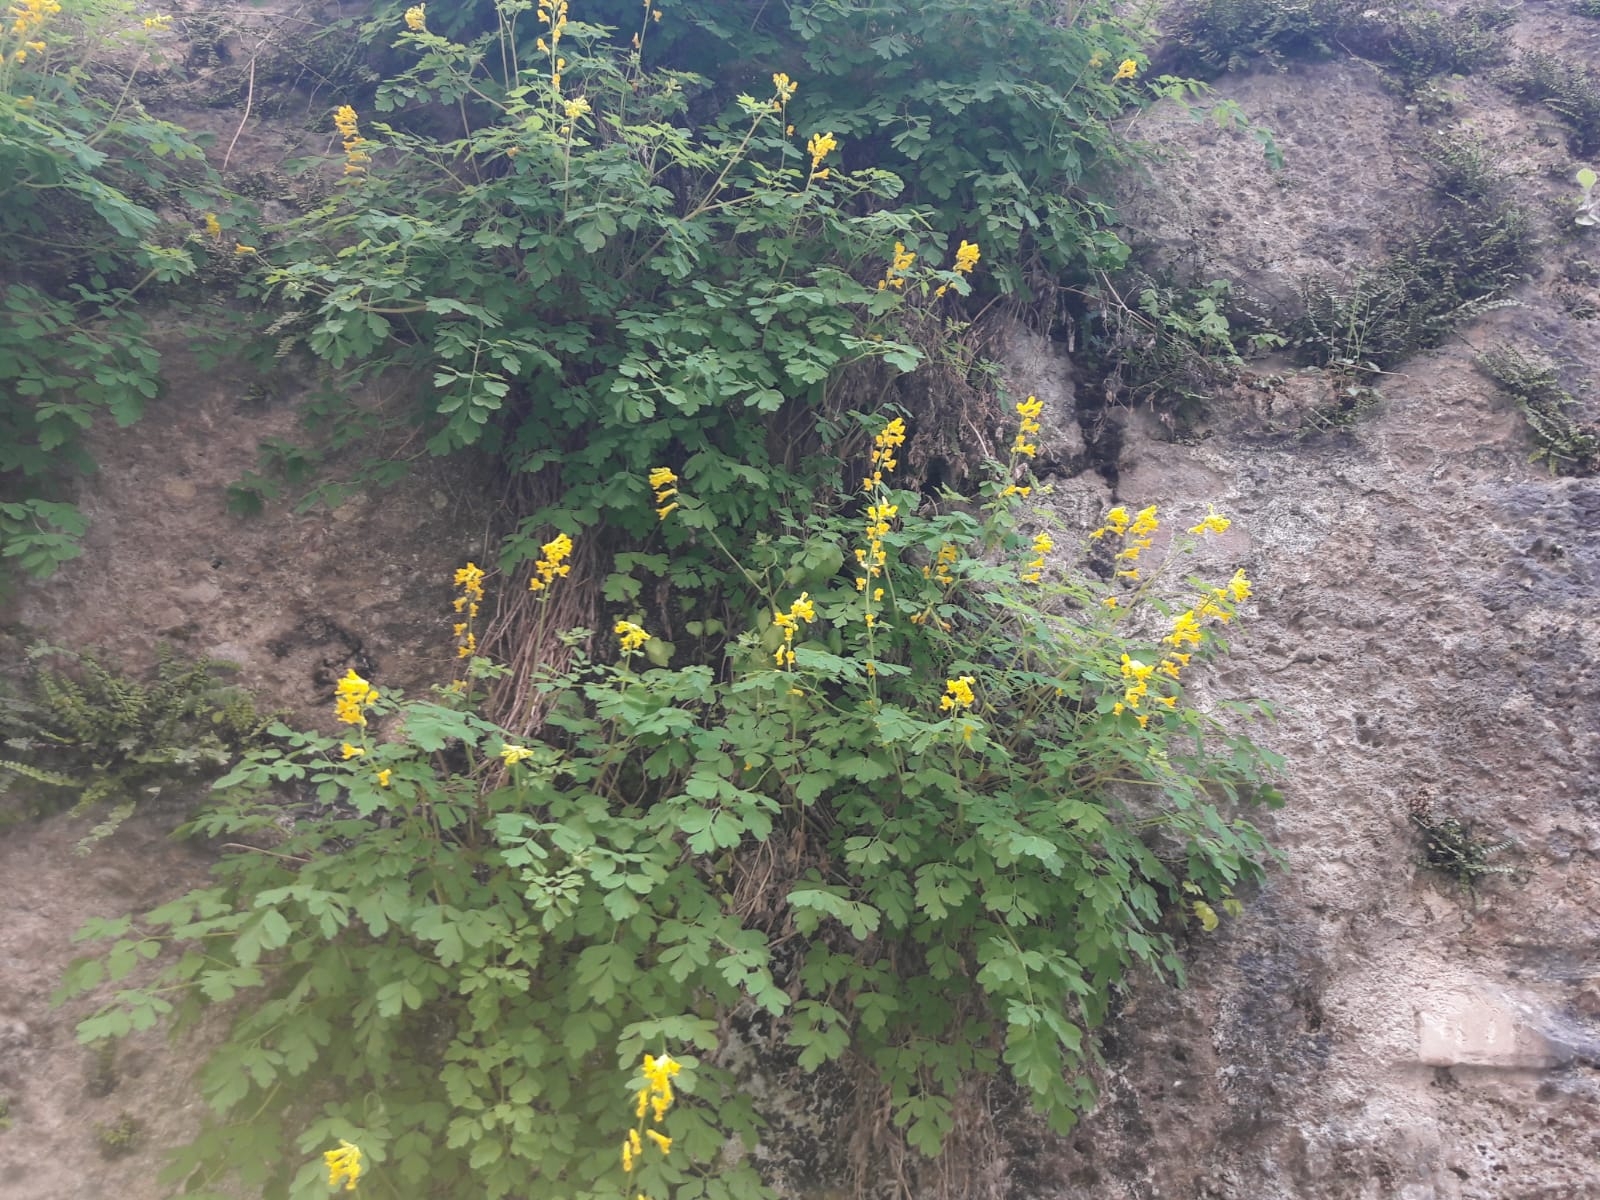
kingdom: Plantae
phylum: Tracheophyta
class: Magnoliopsida
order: Ranunculales
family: Papaveraceae
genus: Pseudofumaria
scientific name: Pseudofumaria lutea
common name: Yellow corydalis
